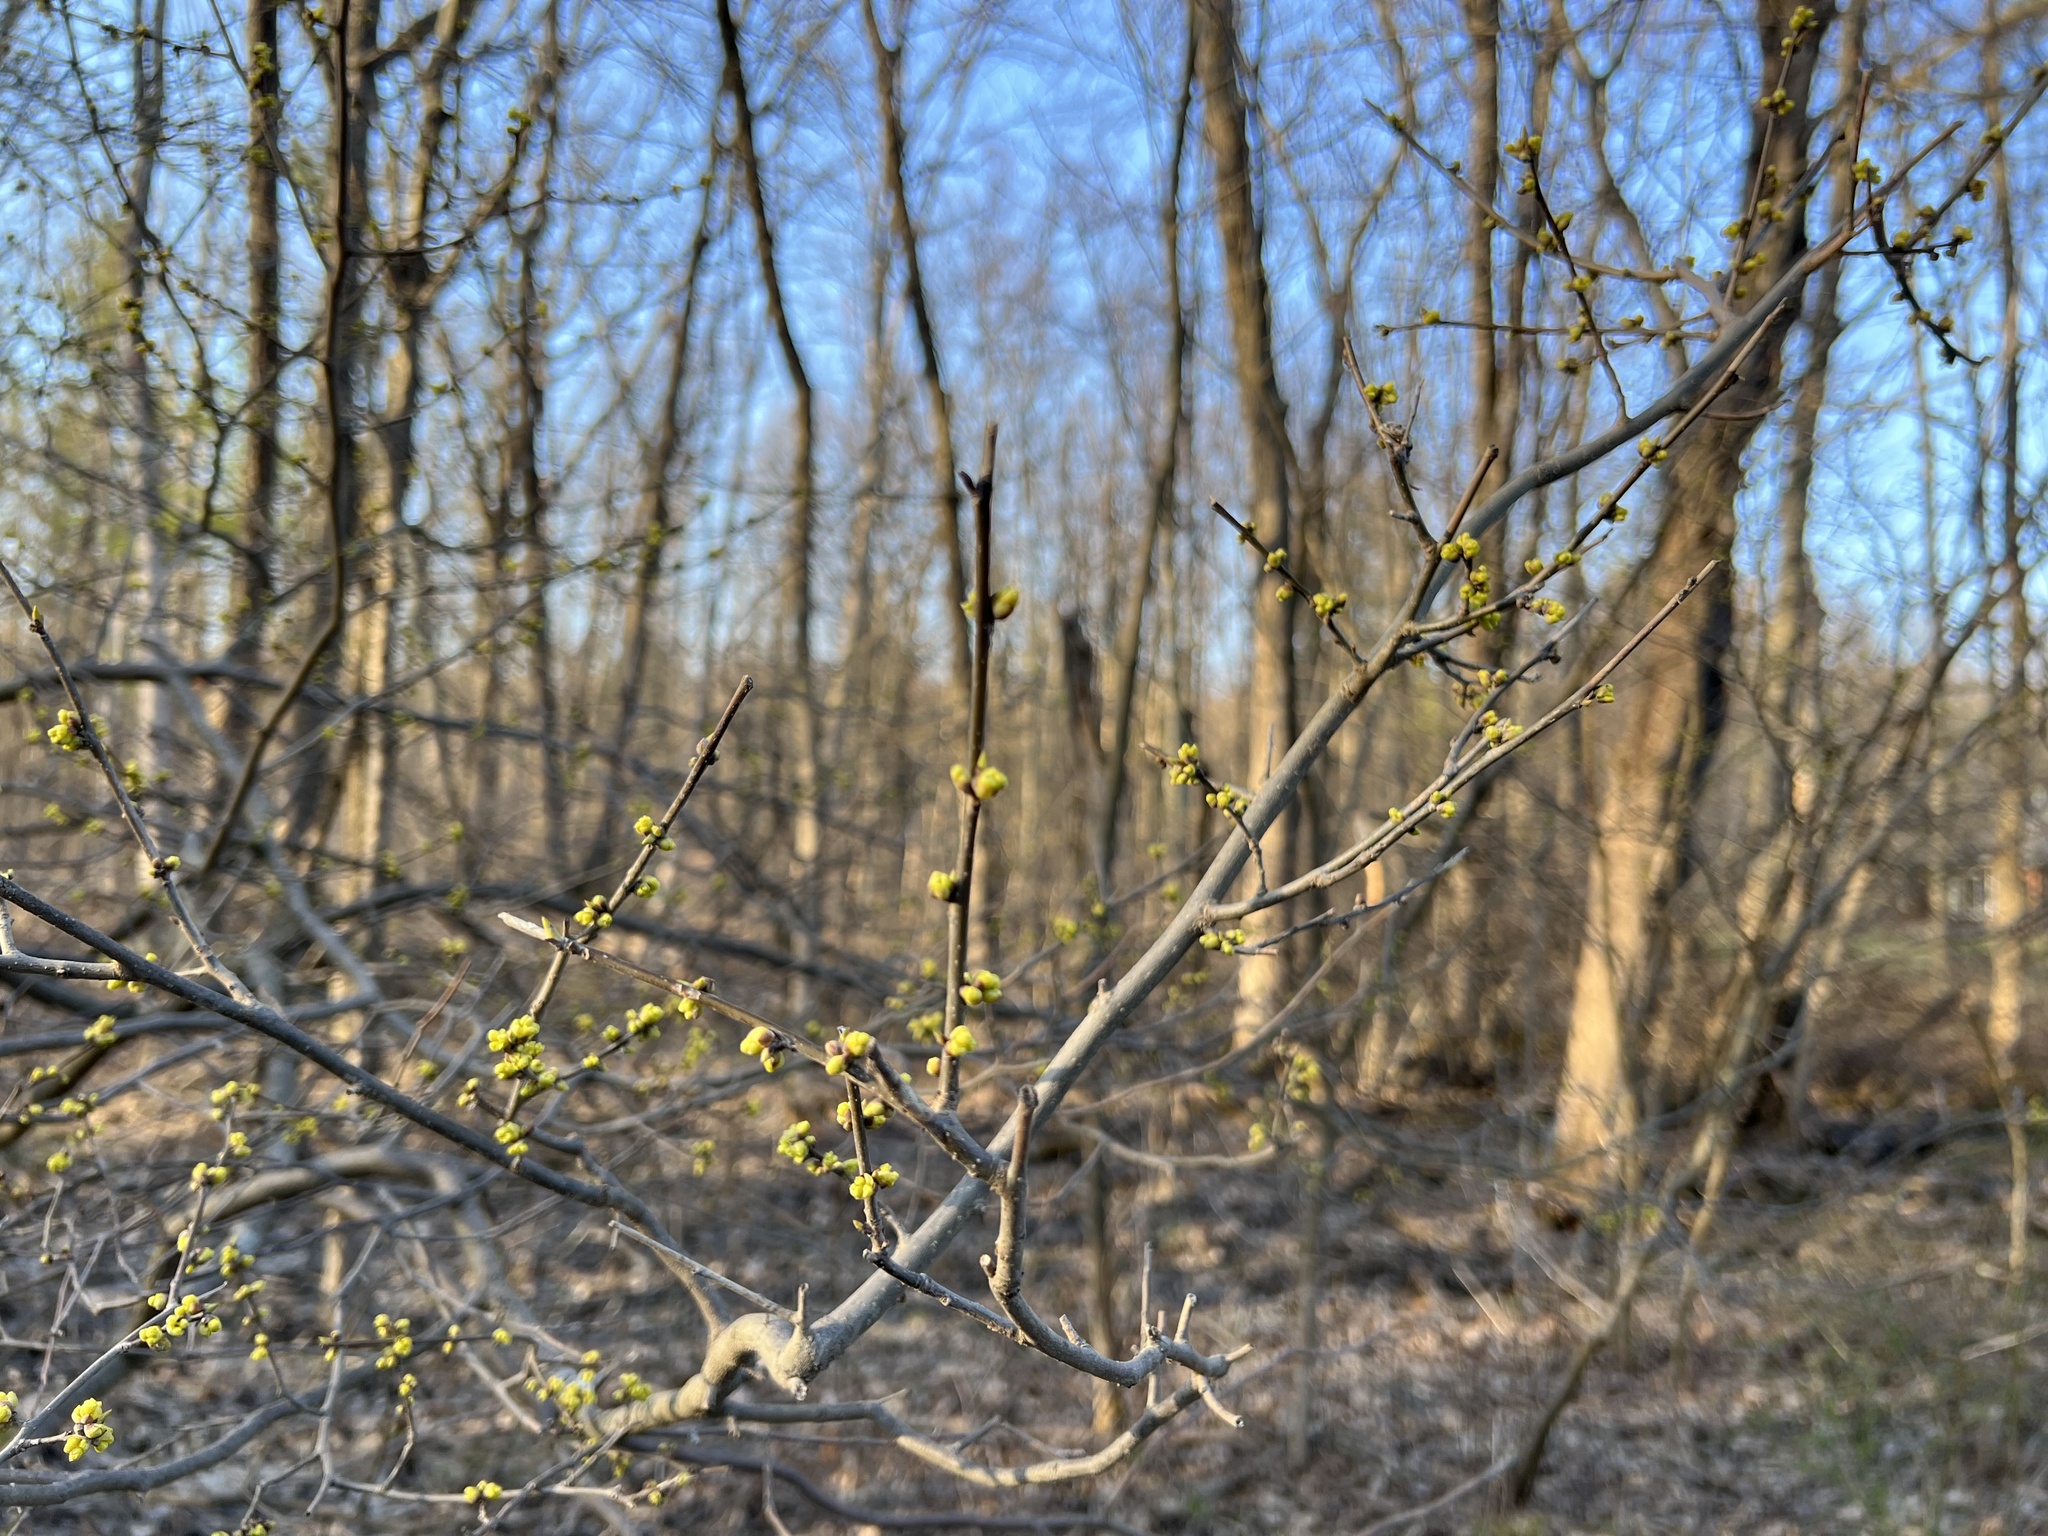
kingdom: Plantae
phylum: Tracheophyta
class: Magnoliopsida
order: Laurales
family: Lauraceae
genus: Lindera
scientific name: Lindera benzoin
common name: Spicebush
